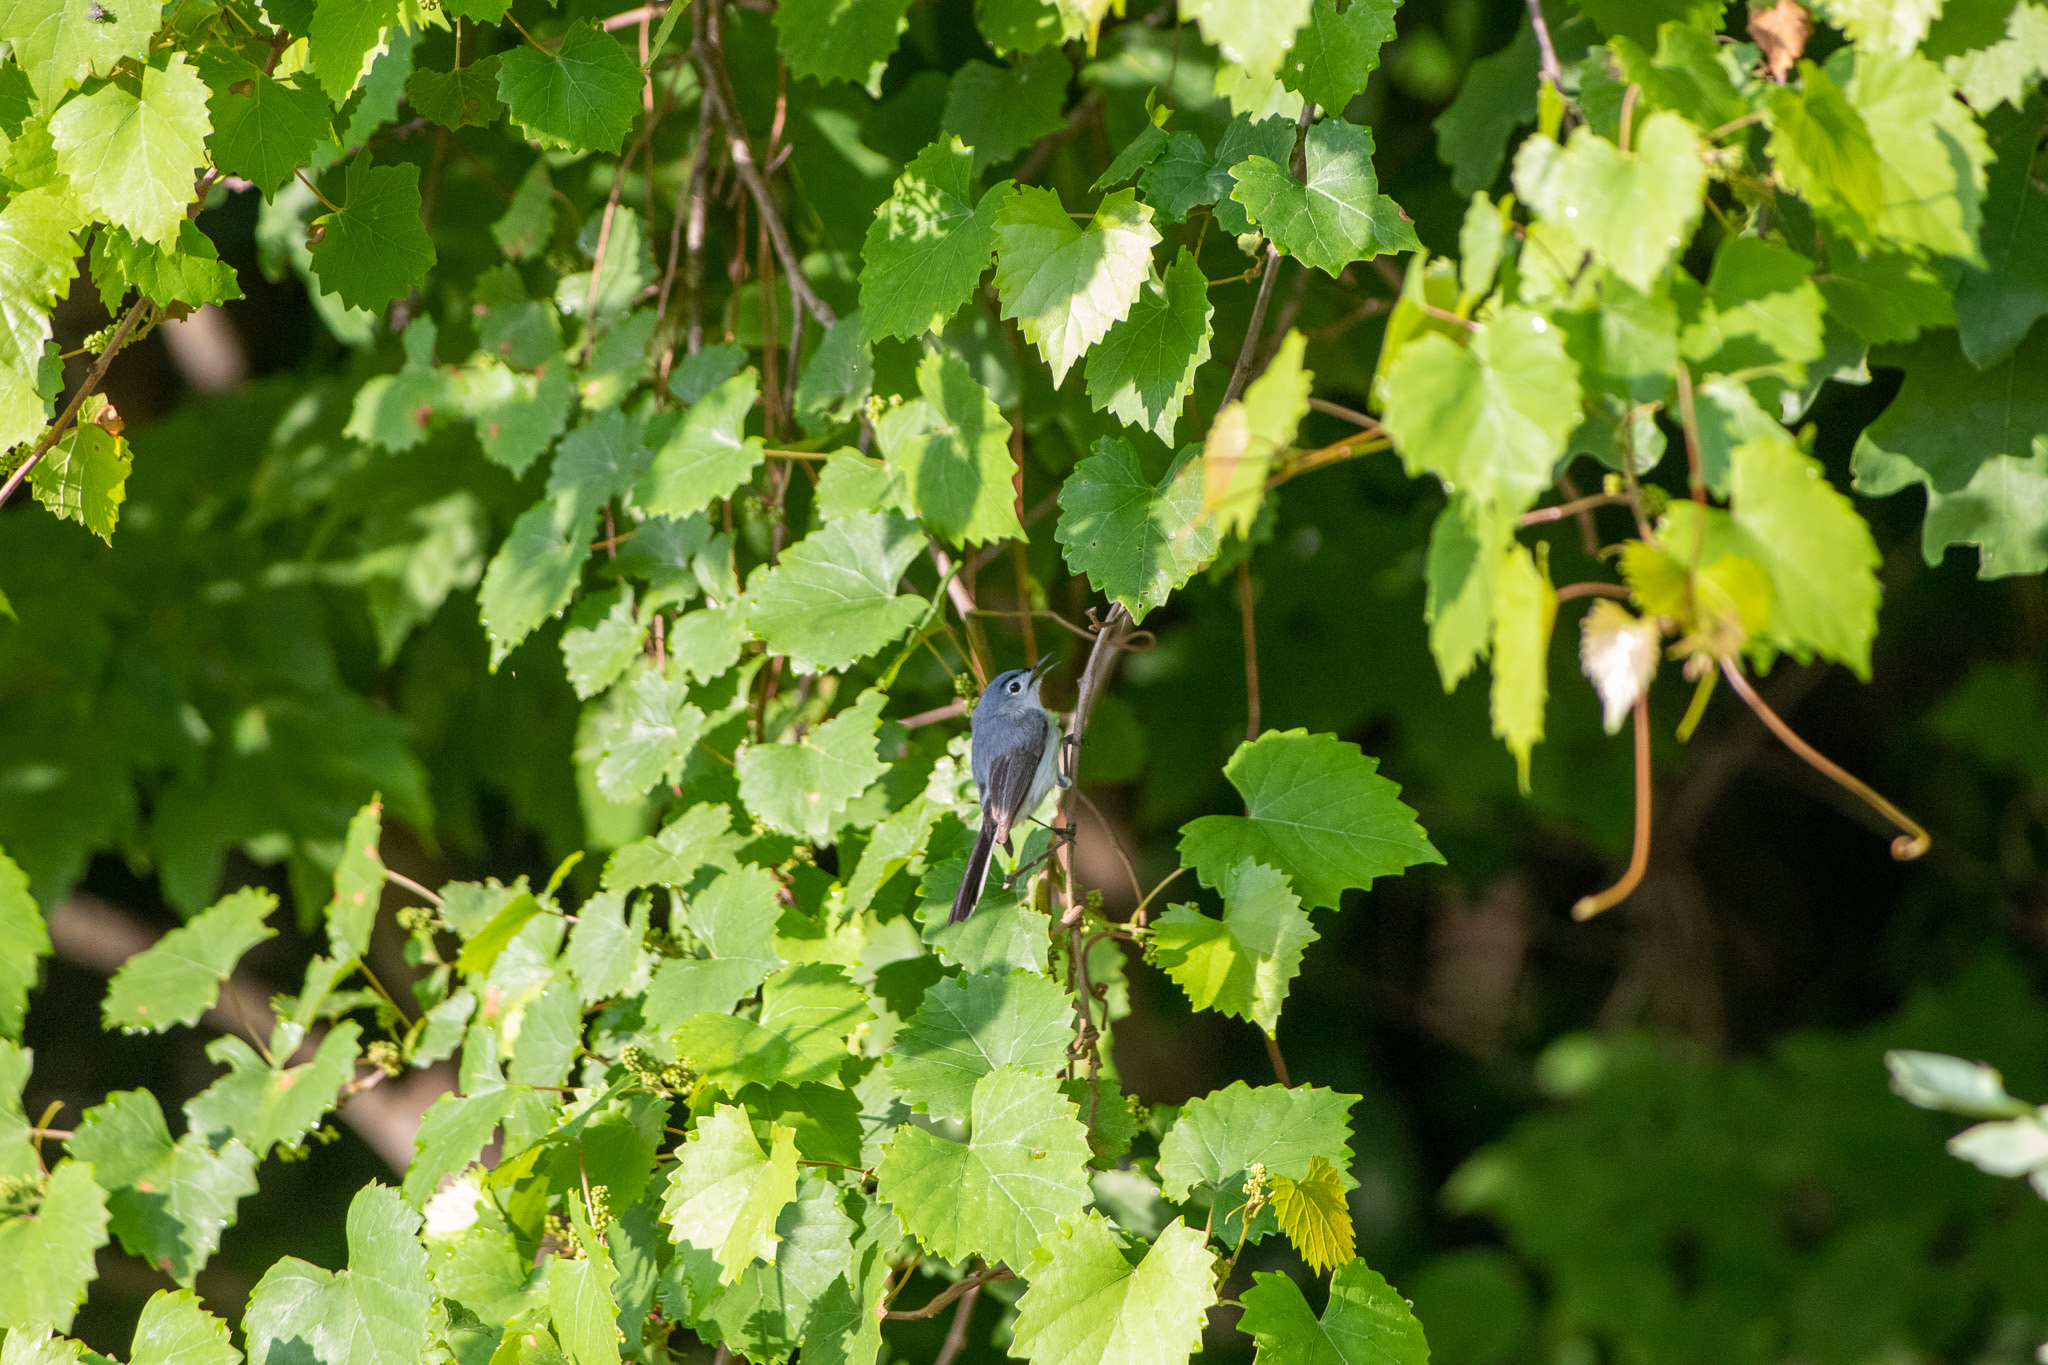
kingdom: Animalia
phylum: Chordata
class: Aves
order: Passeriformes
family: Polioptilidae
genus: Polioptila
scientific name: Polioptila caerulea
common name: Blue-gray gnatcatcher
